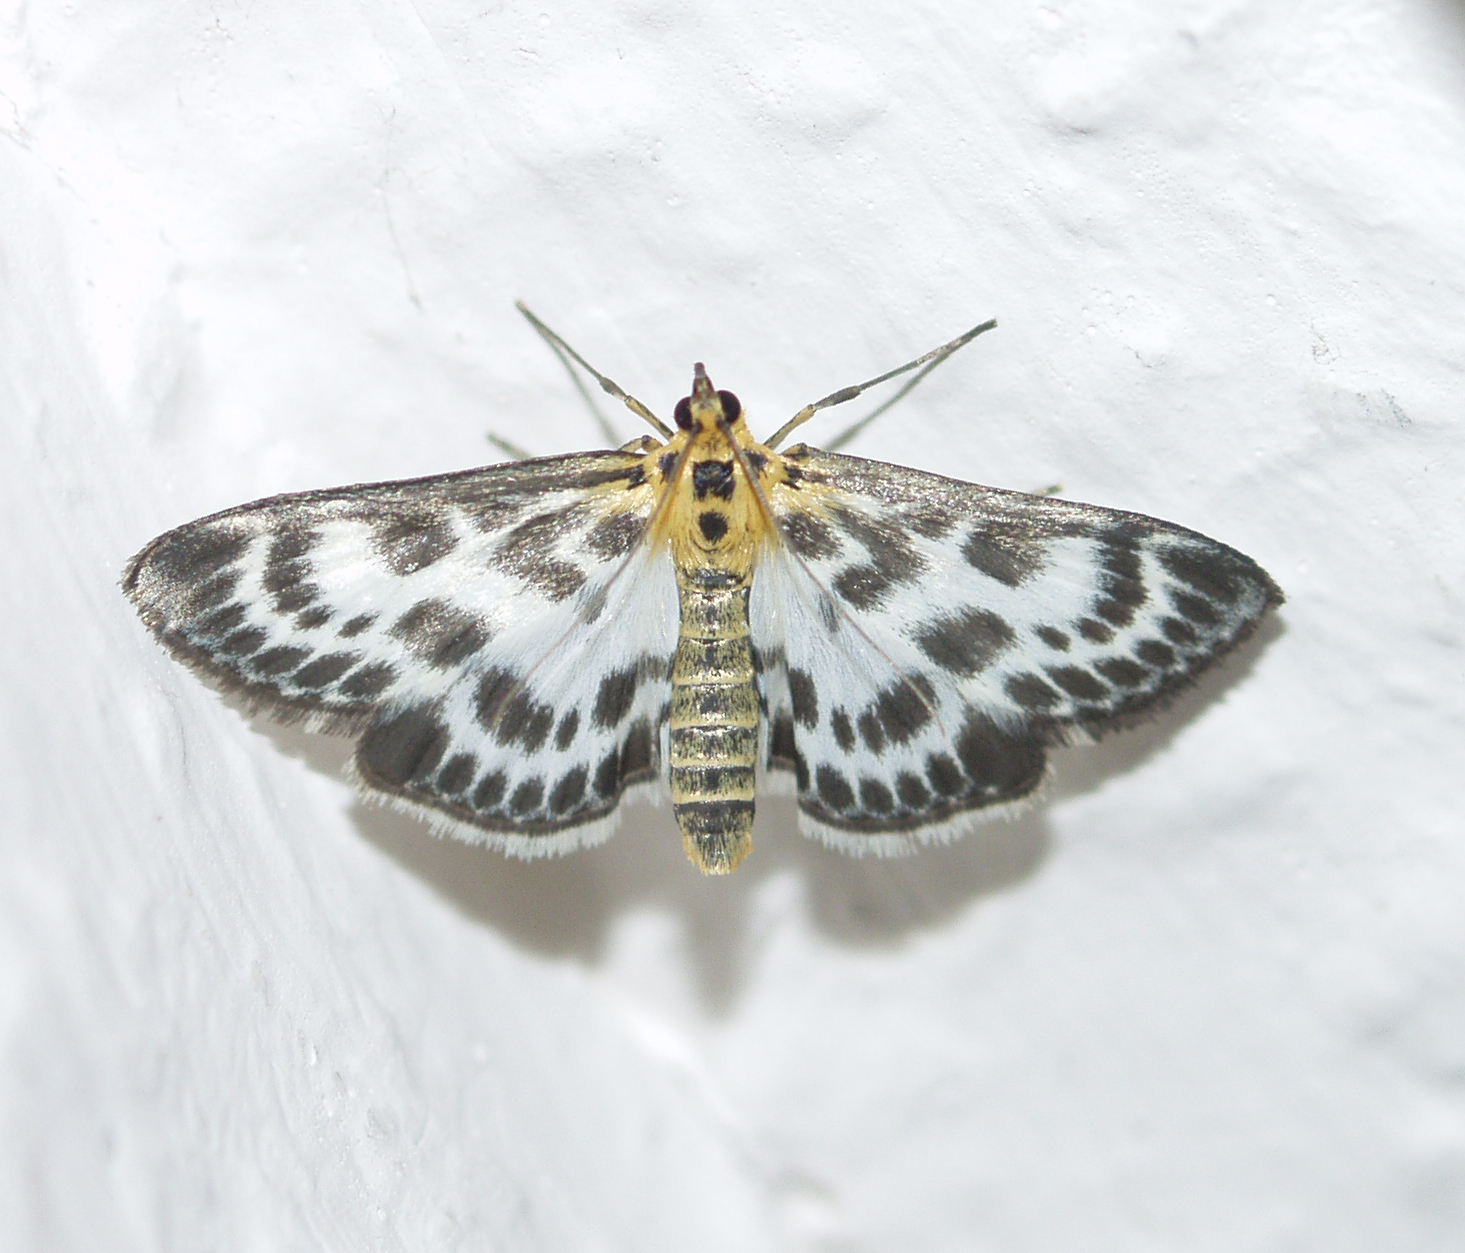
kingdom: Animalia
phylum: Arthropoda
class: Insecta
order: Lepidoptera
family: Crambidae
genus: Anania
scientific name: Anania hortulata
